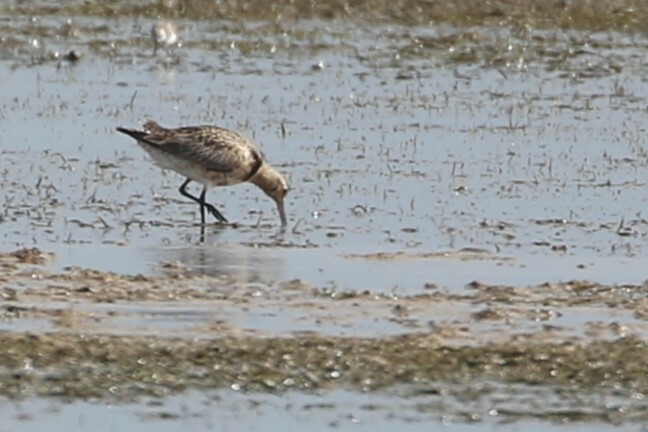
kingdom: Animalia
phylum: Chordata
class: Aves
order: Charadriiformes
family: Scolopacidae
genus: Limosa
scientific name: Limosa lapponica
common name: Bar-tailed godwit
